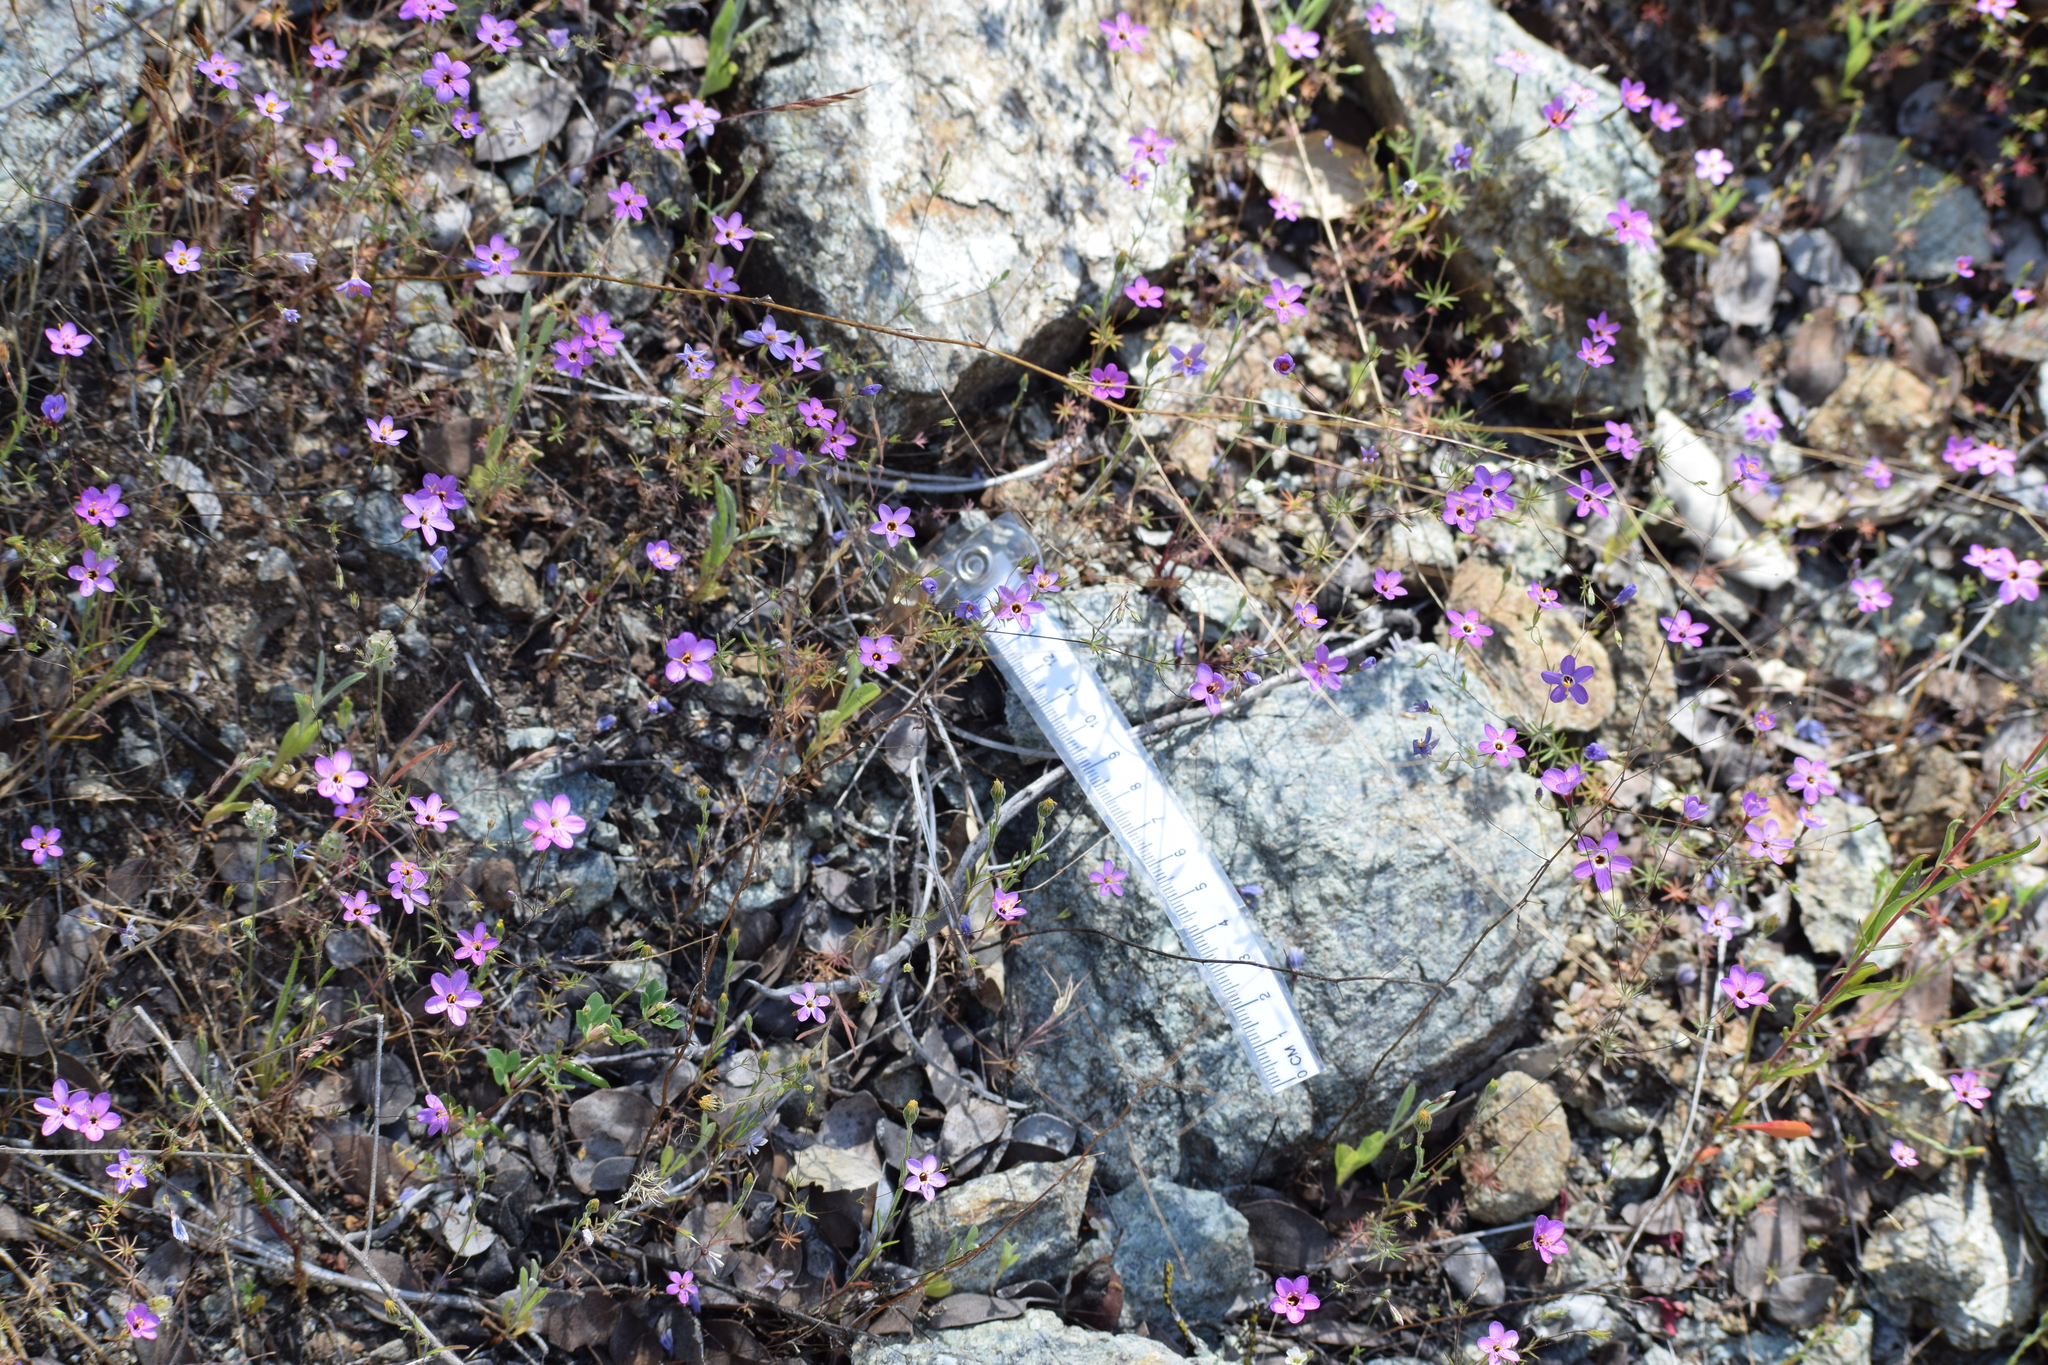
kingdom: Plantae
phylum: Tracheophyta
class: Magnoliopsida
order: Ericales
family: Polemoniaceae
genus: Leptosiphon
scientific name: Leptosiphon ambiguus
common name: Serpentine linanthus
